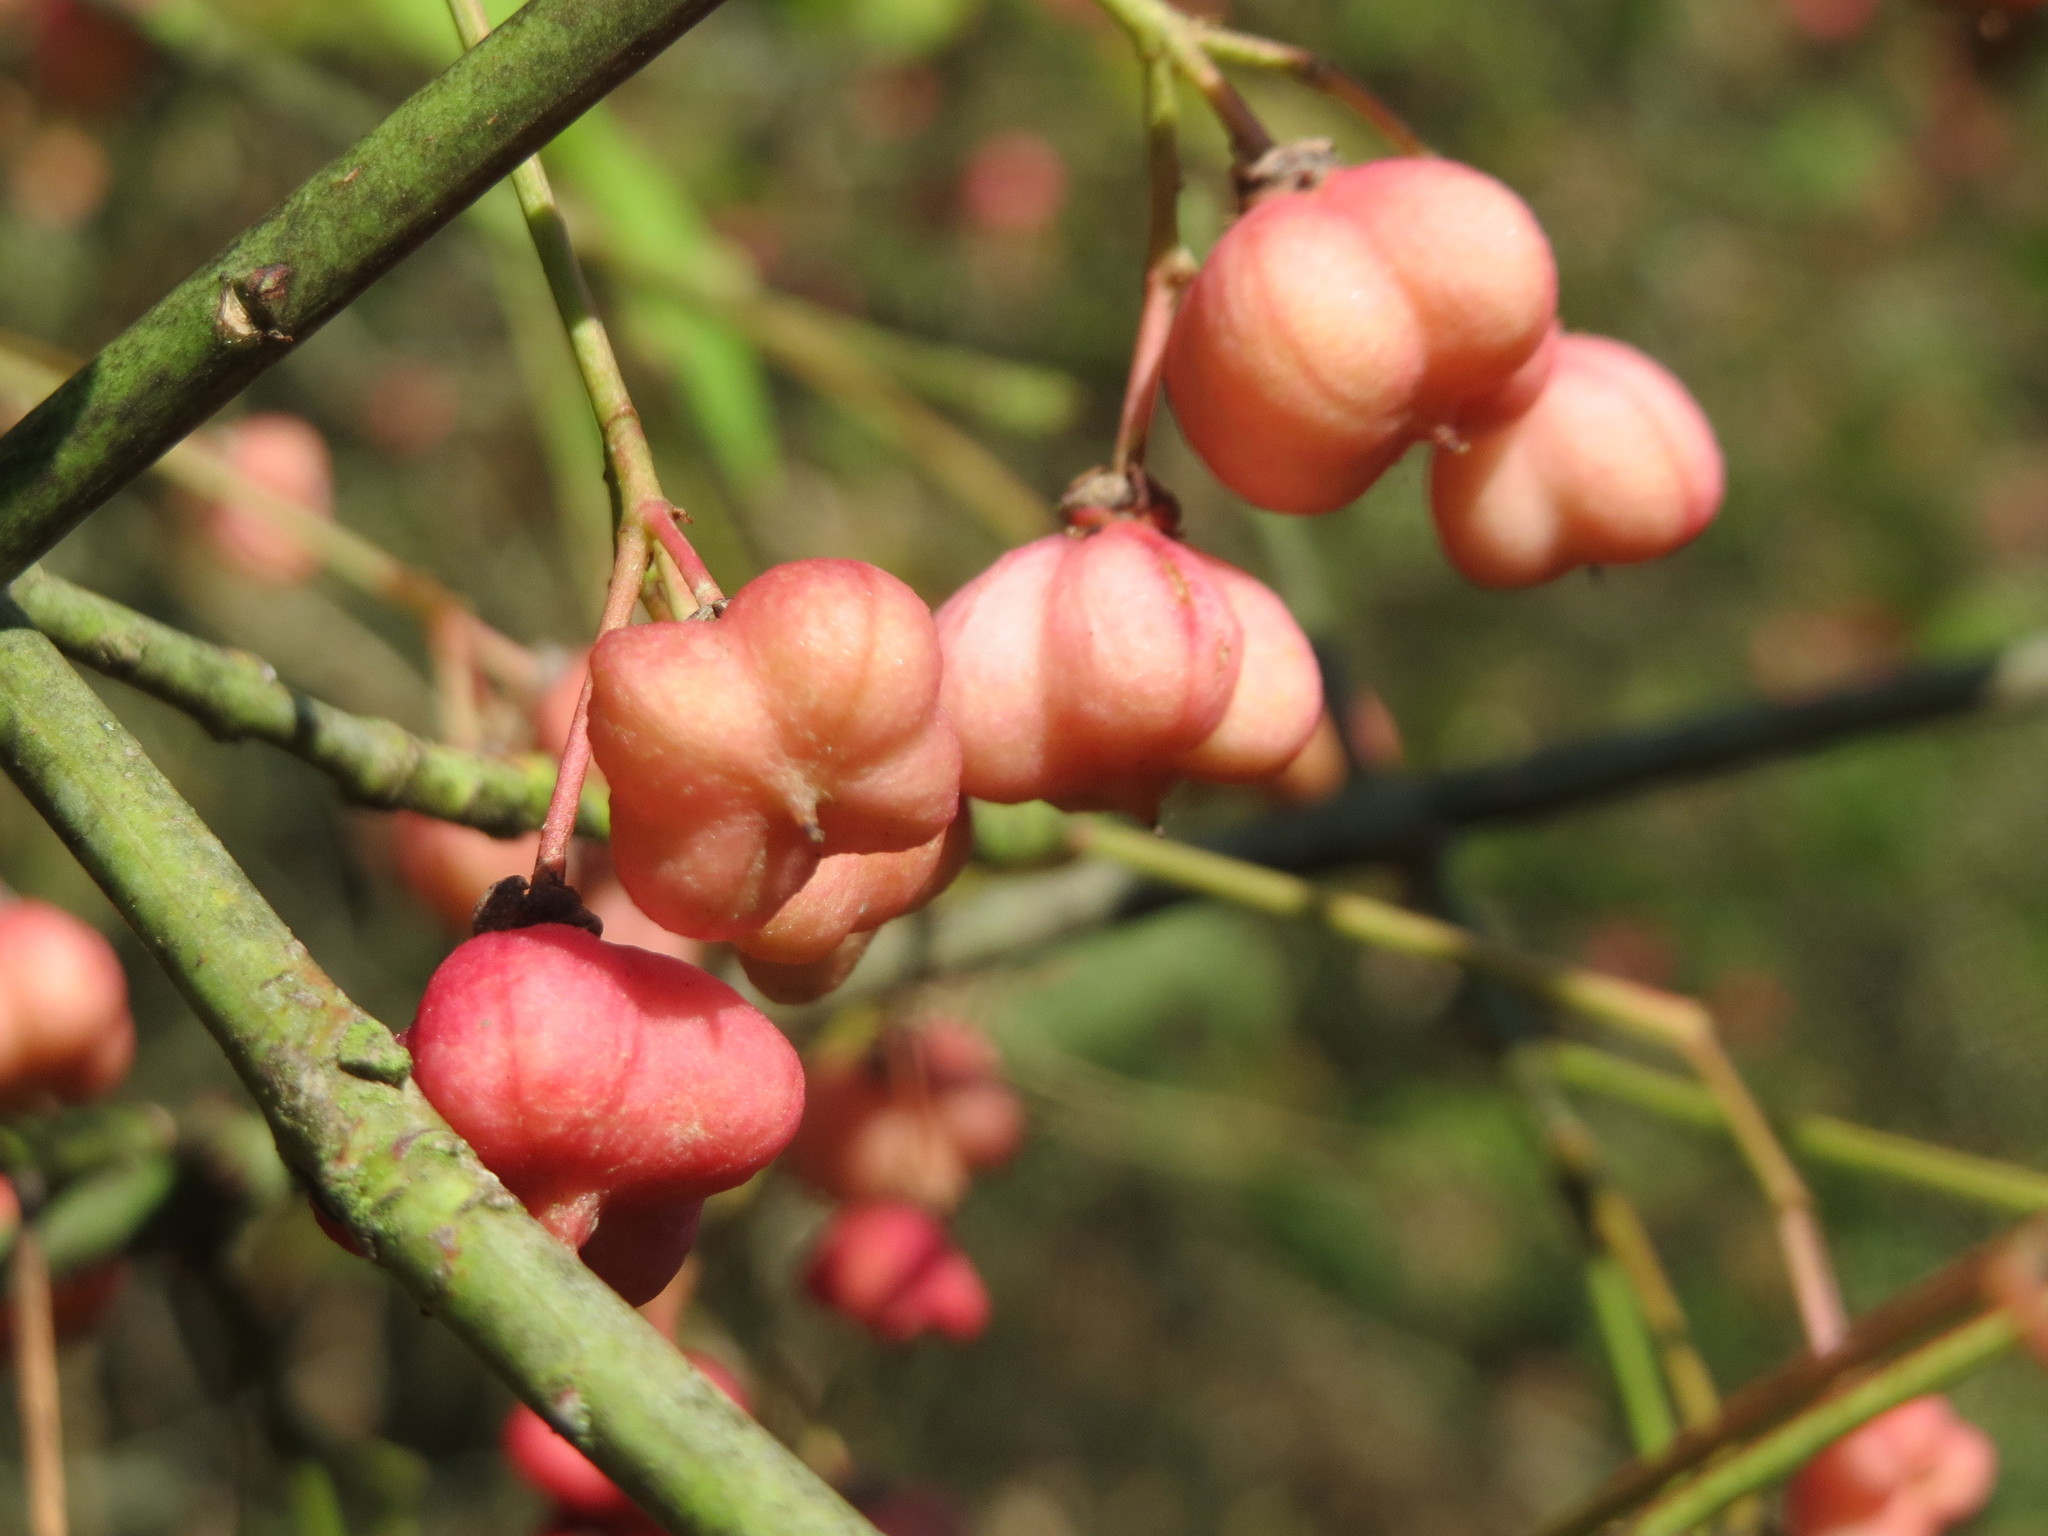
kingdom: Plantae
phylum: Tracheophyta
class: Magnoliopsida
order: Celastrales
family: Celastraceae
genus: Euonymus
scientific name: Euonymus europaeus
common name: Spindle
